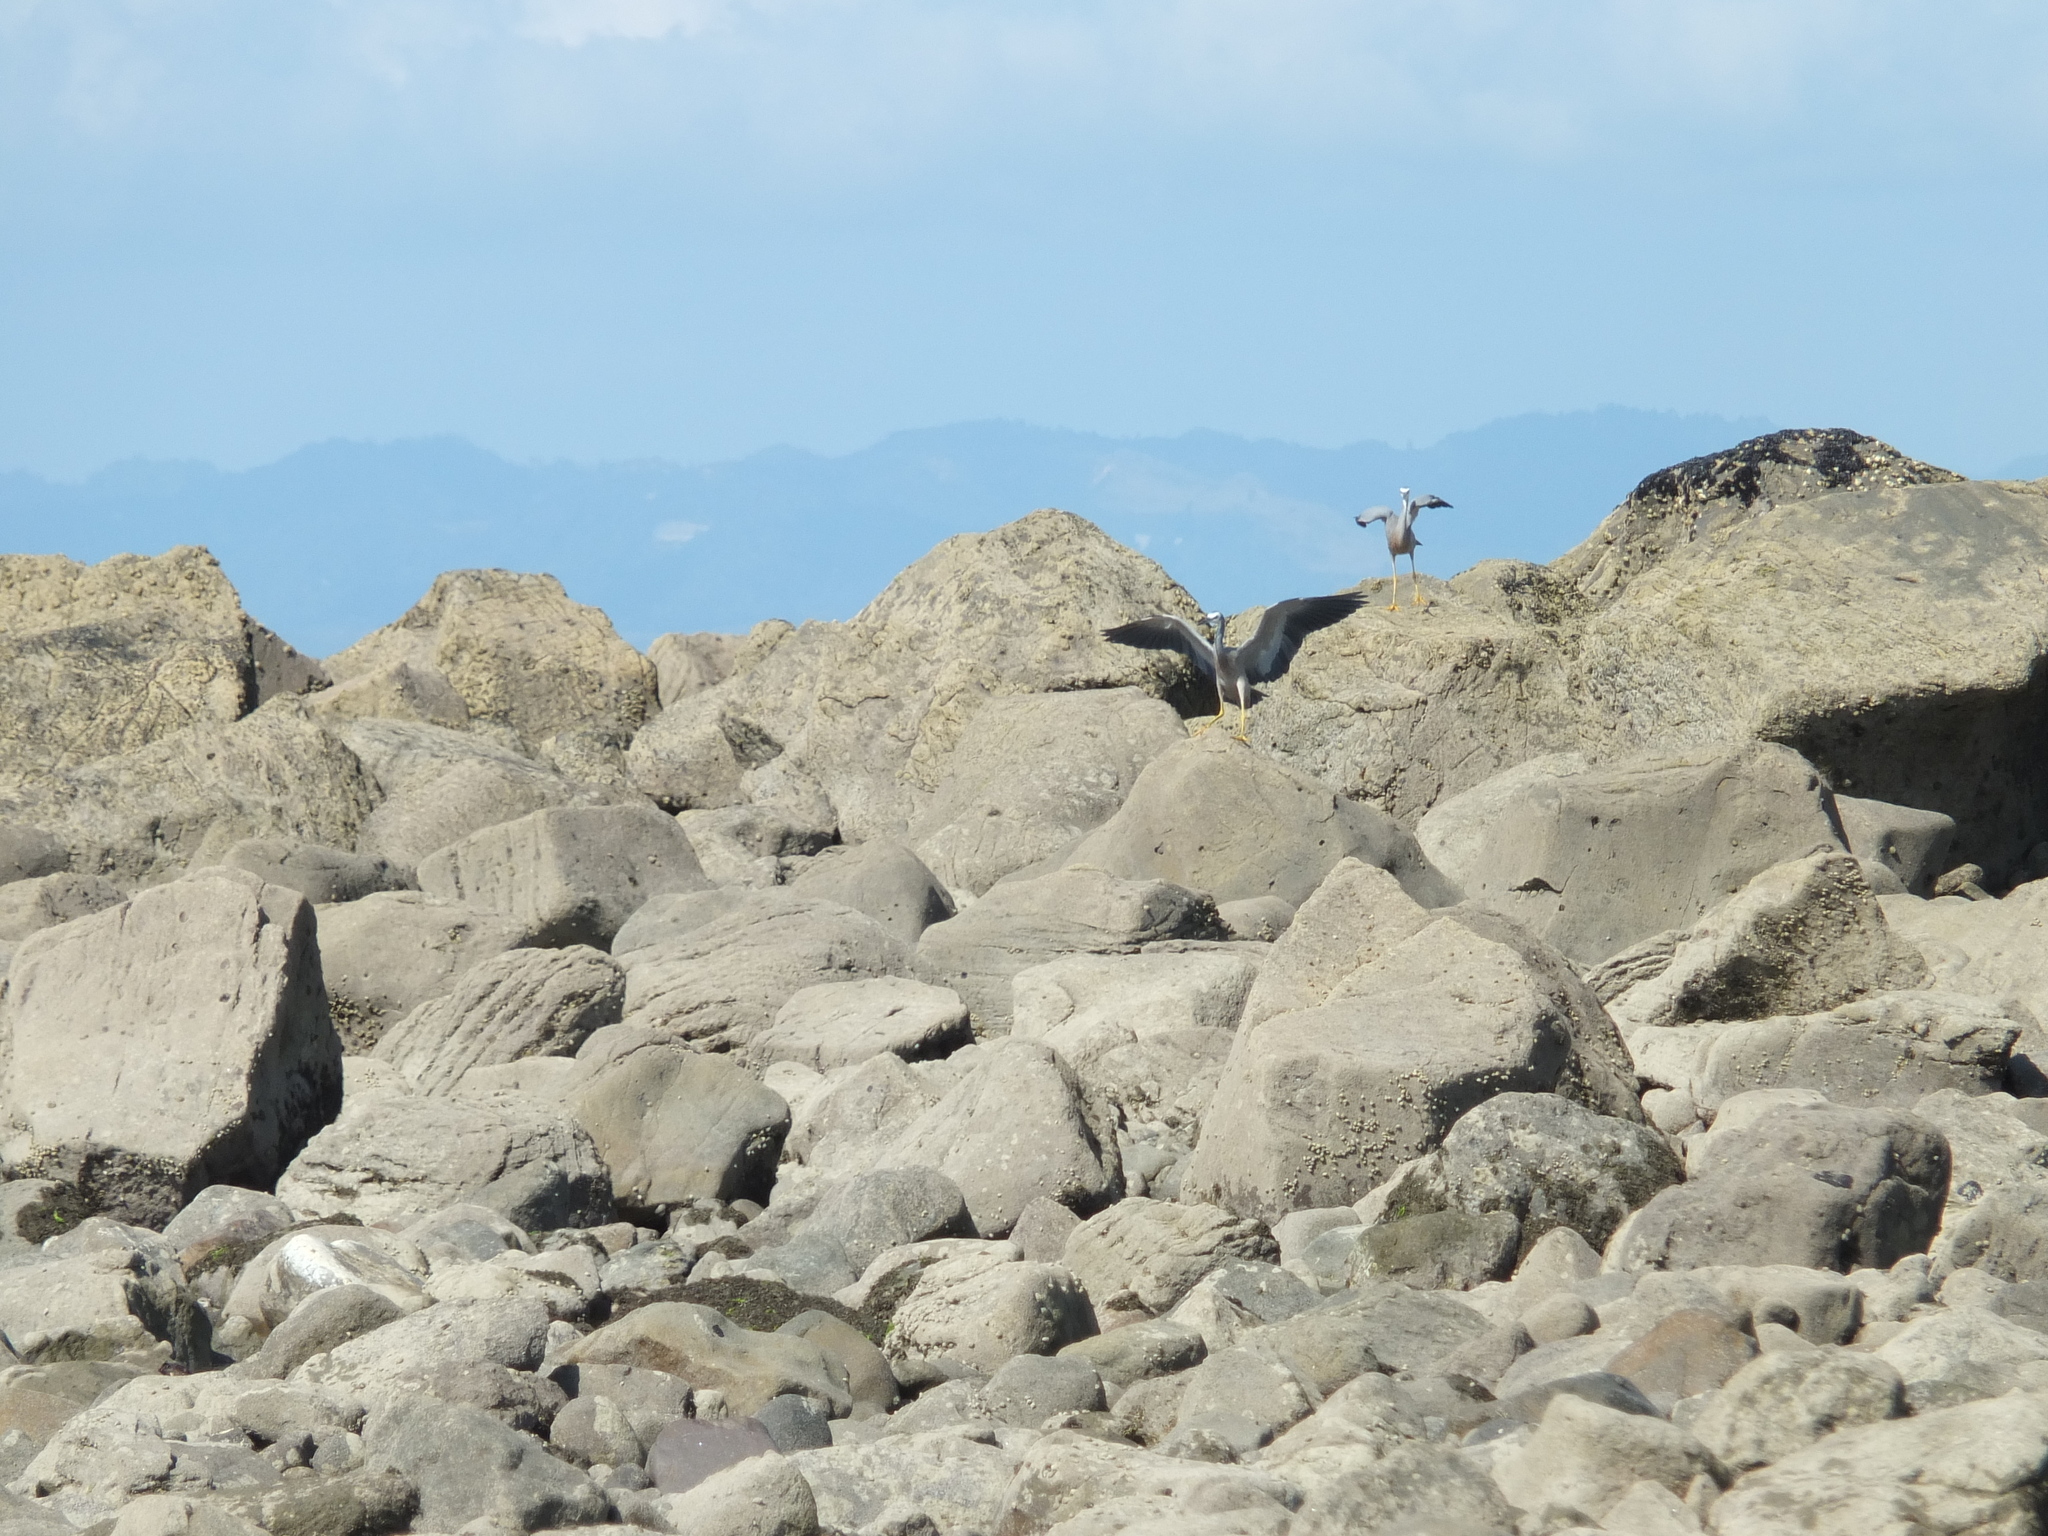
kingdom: Animalia
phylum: Chordata
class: Aves
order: Pelecaniformes
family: Ardeidae
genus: Egretta
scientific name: Egretta novaehollandiae
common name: White-faced heron
